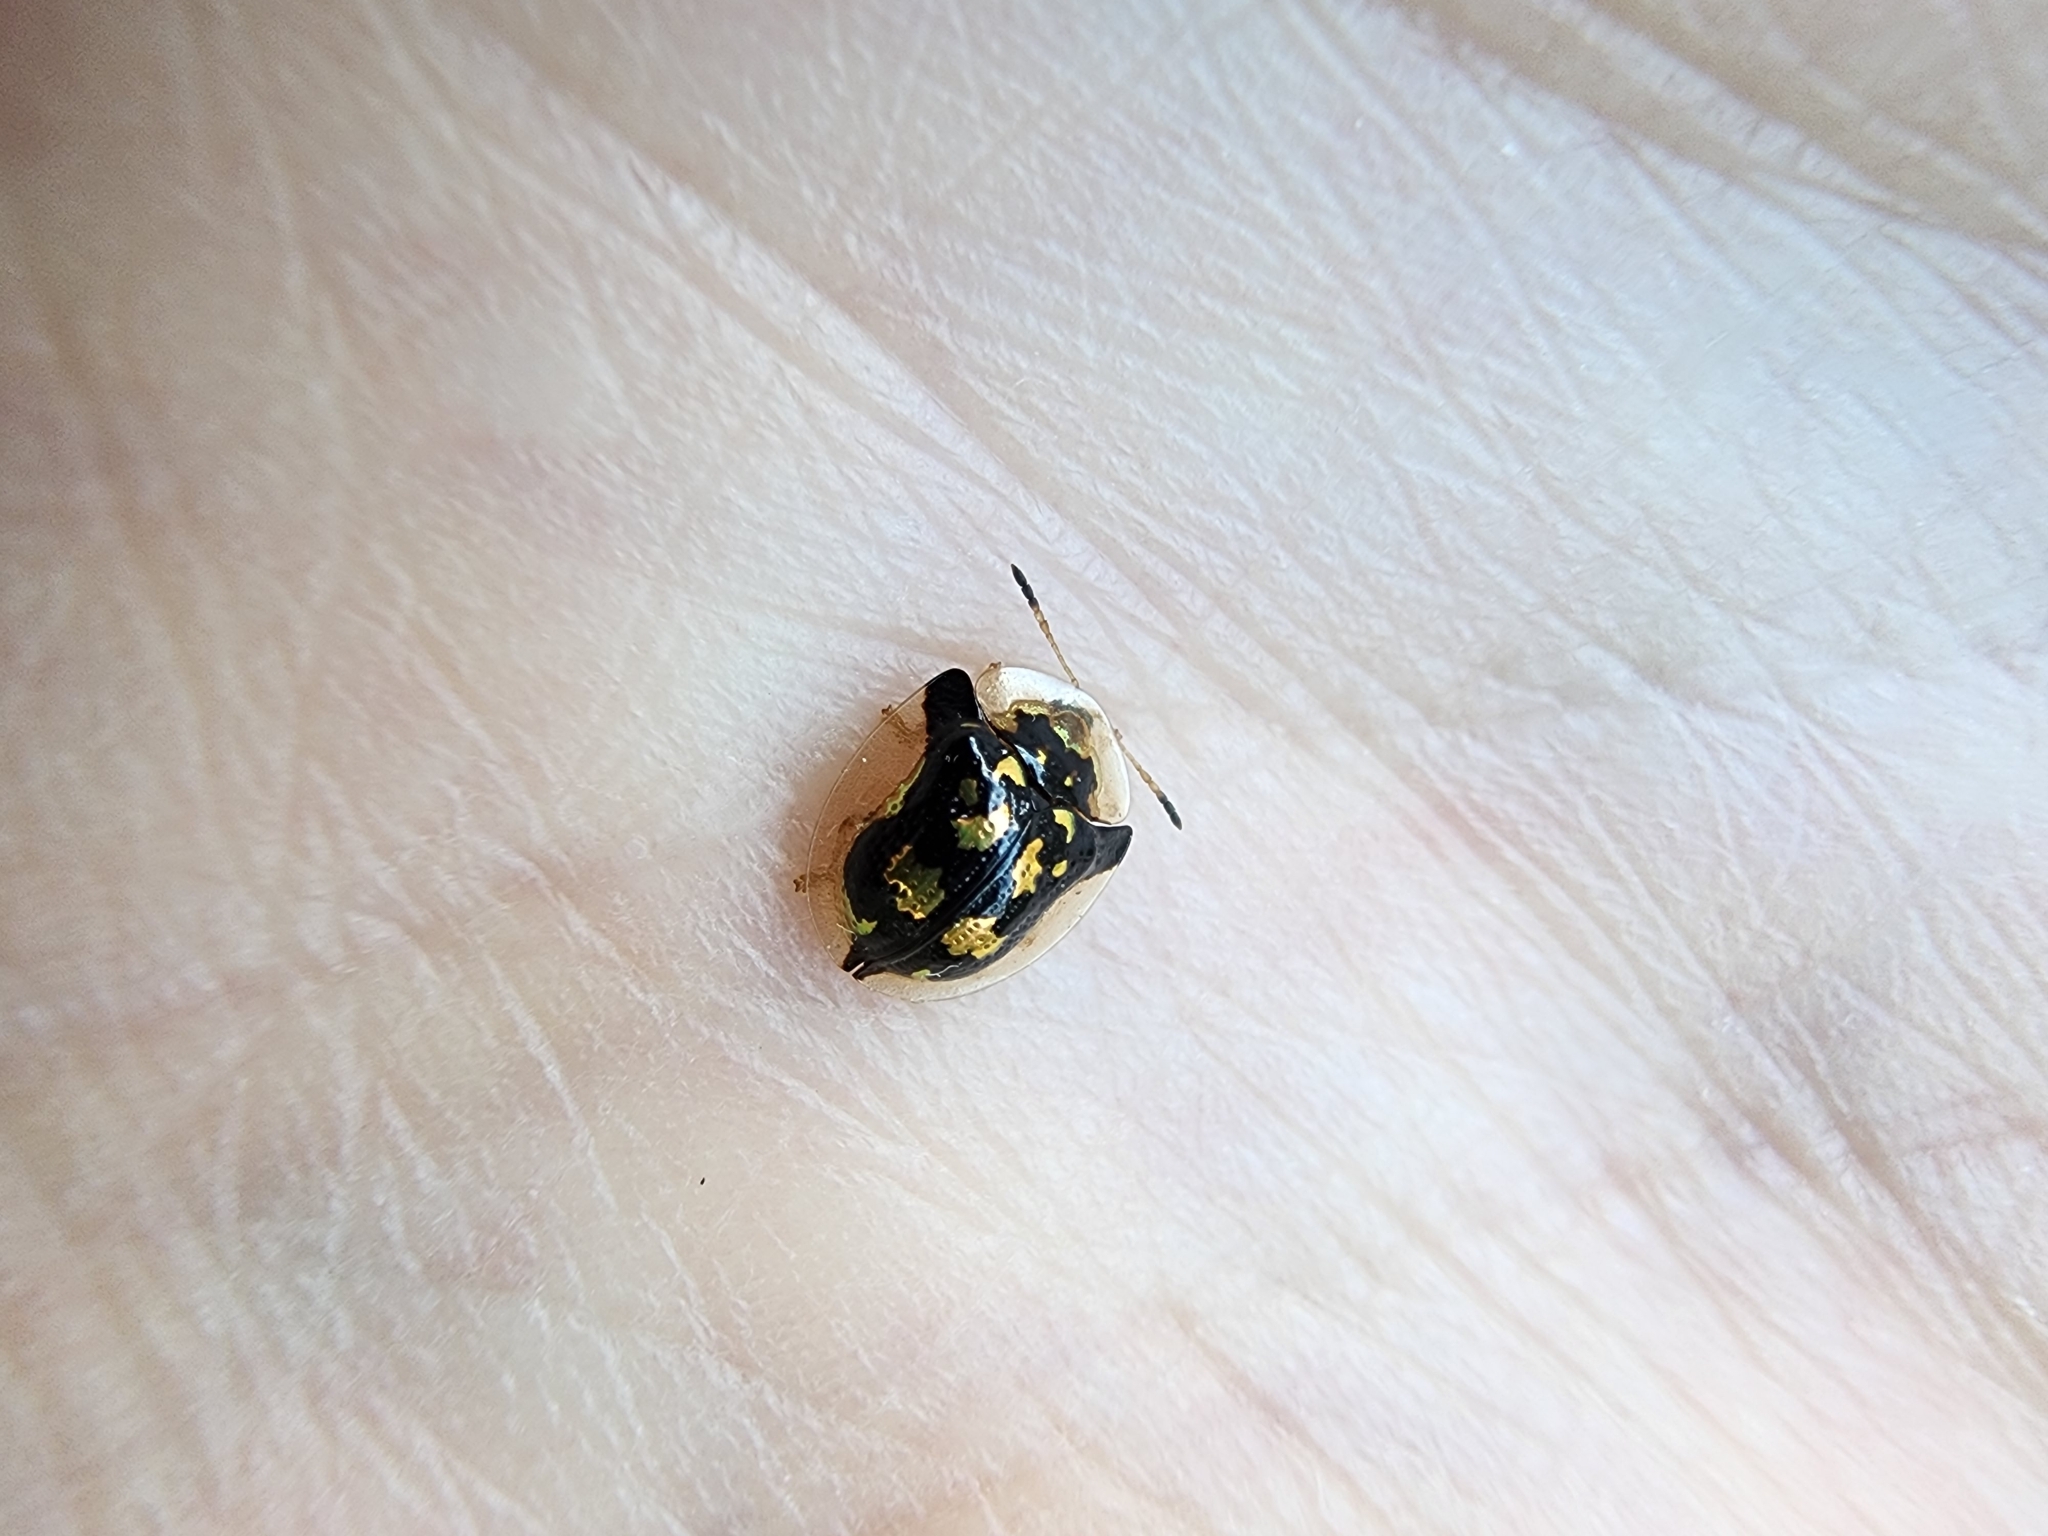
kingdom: Animalia
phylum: Arthropoda
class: Insecta
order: Coleoptera
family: Chrysomelidae
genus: Deloyala
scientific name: Deloyala guttata
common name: Mottled tortoise beetle
